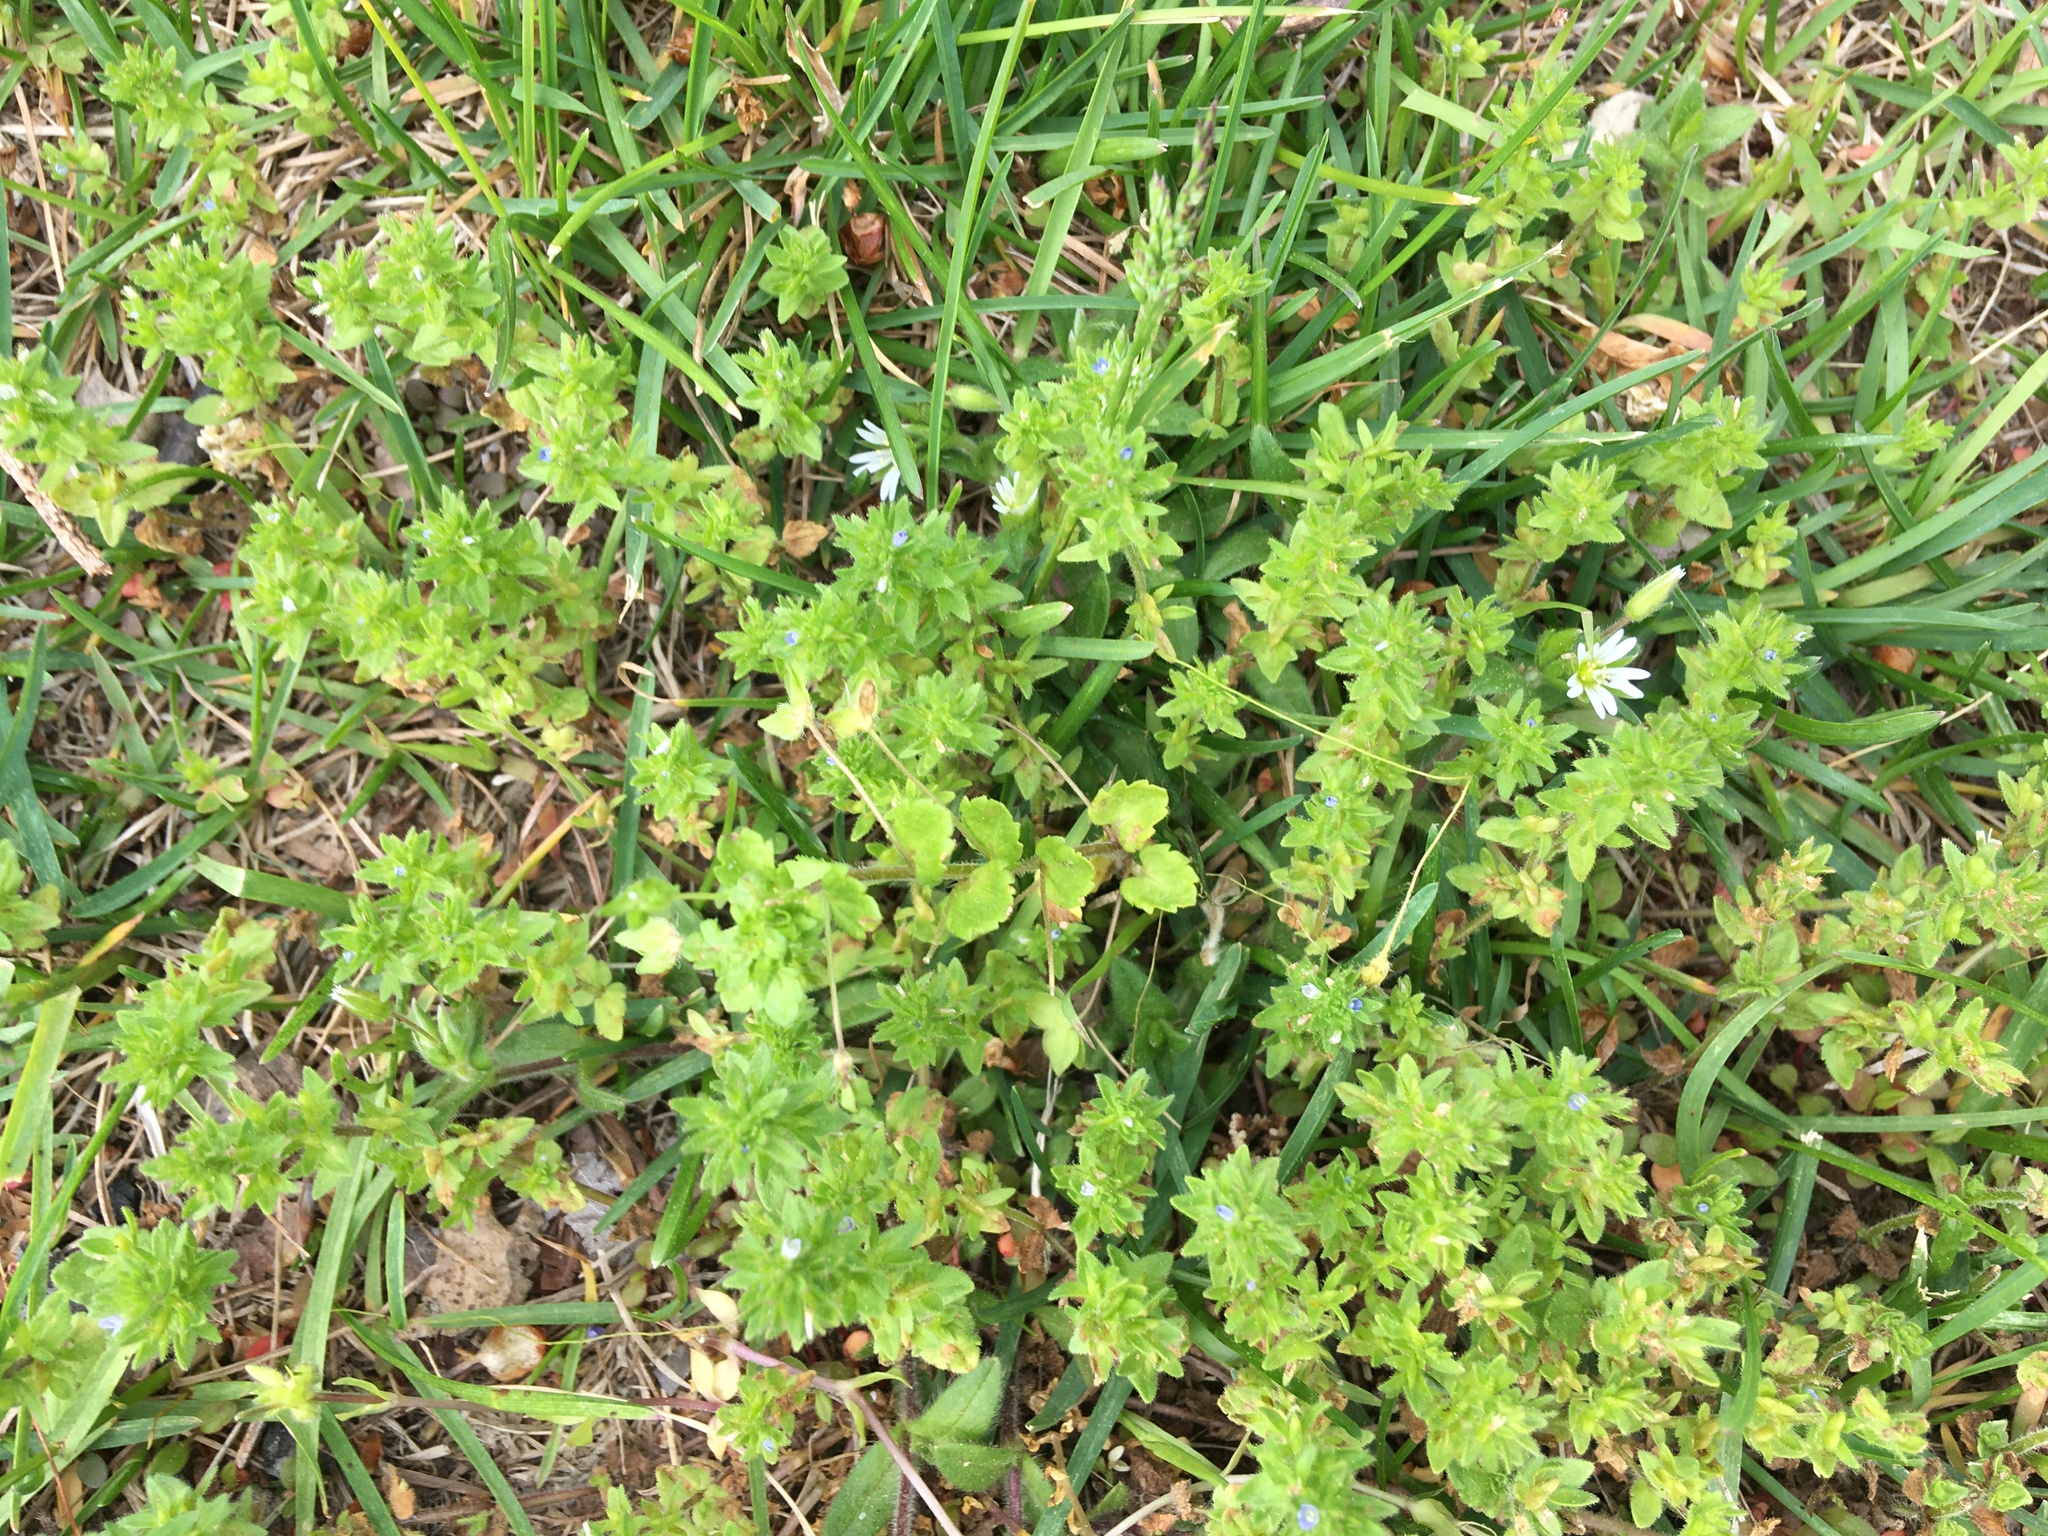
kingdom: Plantae
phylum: Tracheophyta
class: Magnoliopsida
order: Lamiales
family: Plantaginaceae
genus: Veronica
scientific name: Veronica arvensis
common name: Corn speedwell
